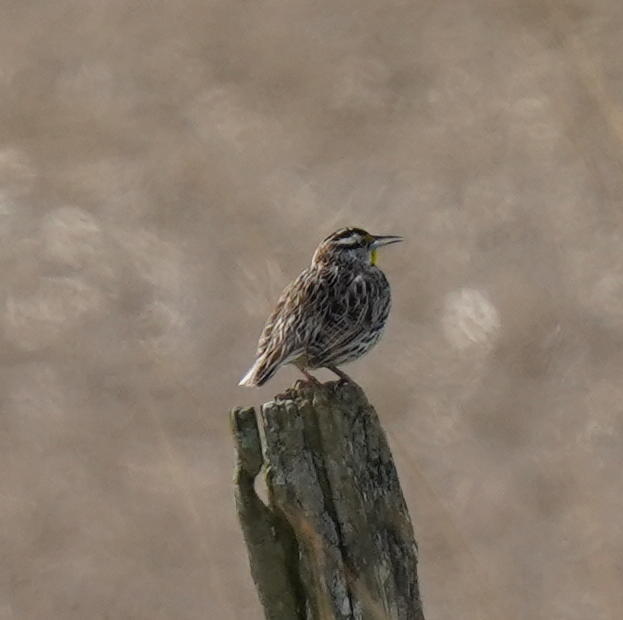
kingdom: Animalia
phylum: Chordata
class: Aves
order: Passeriformes
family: Icteridae
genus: Sturnella
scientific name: Sturnella magna
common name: Eastern meadowlark
